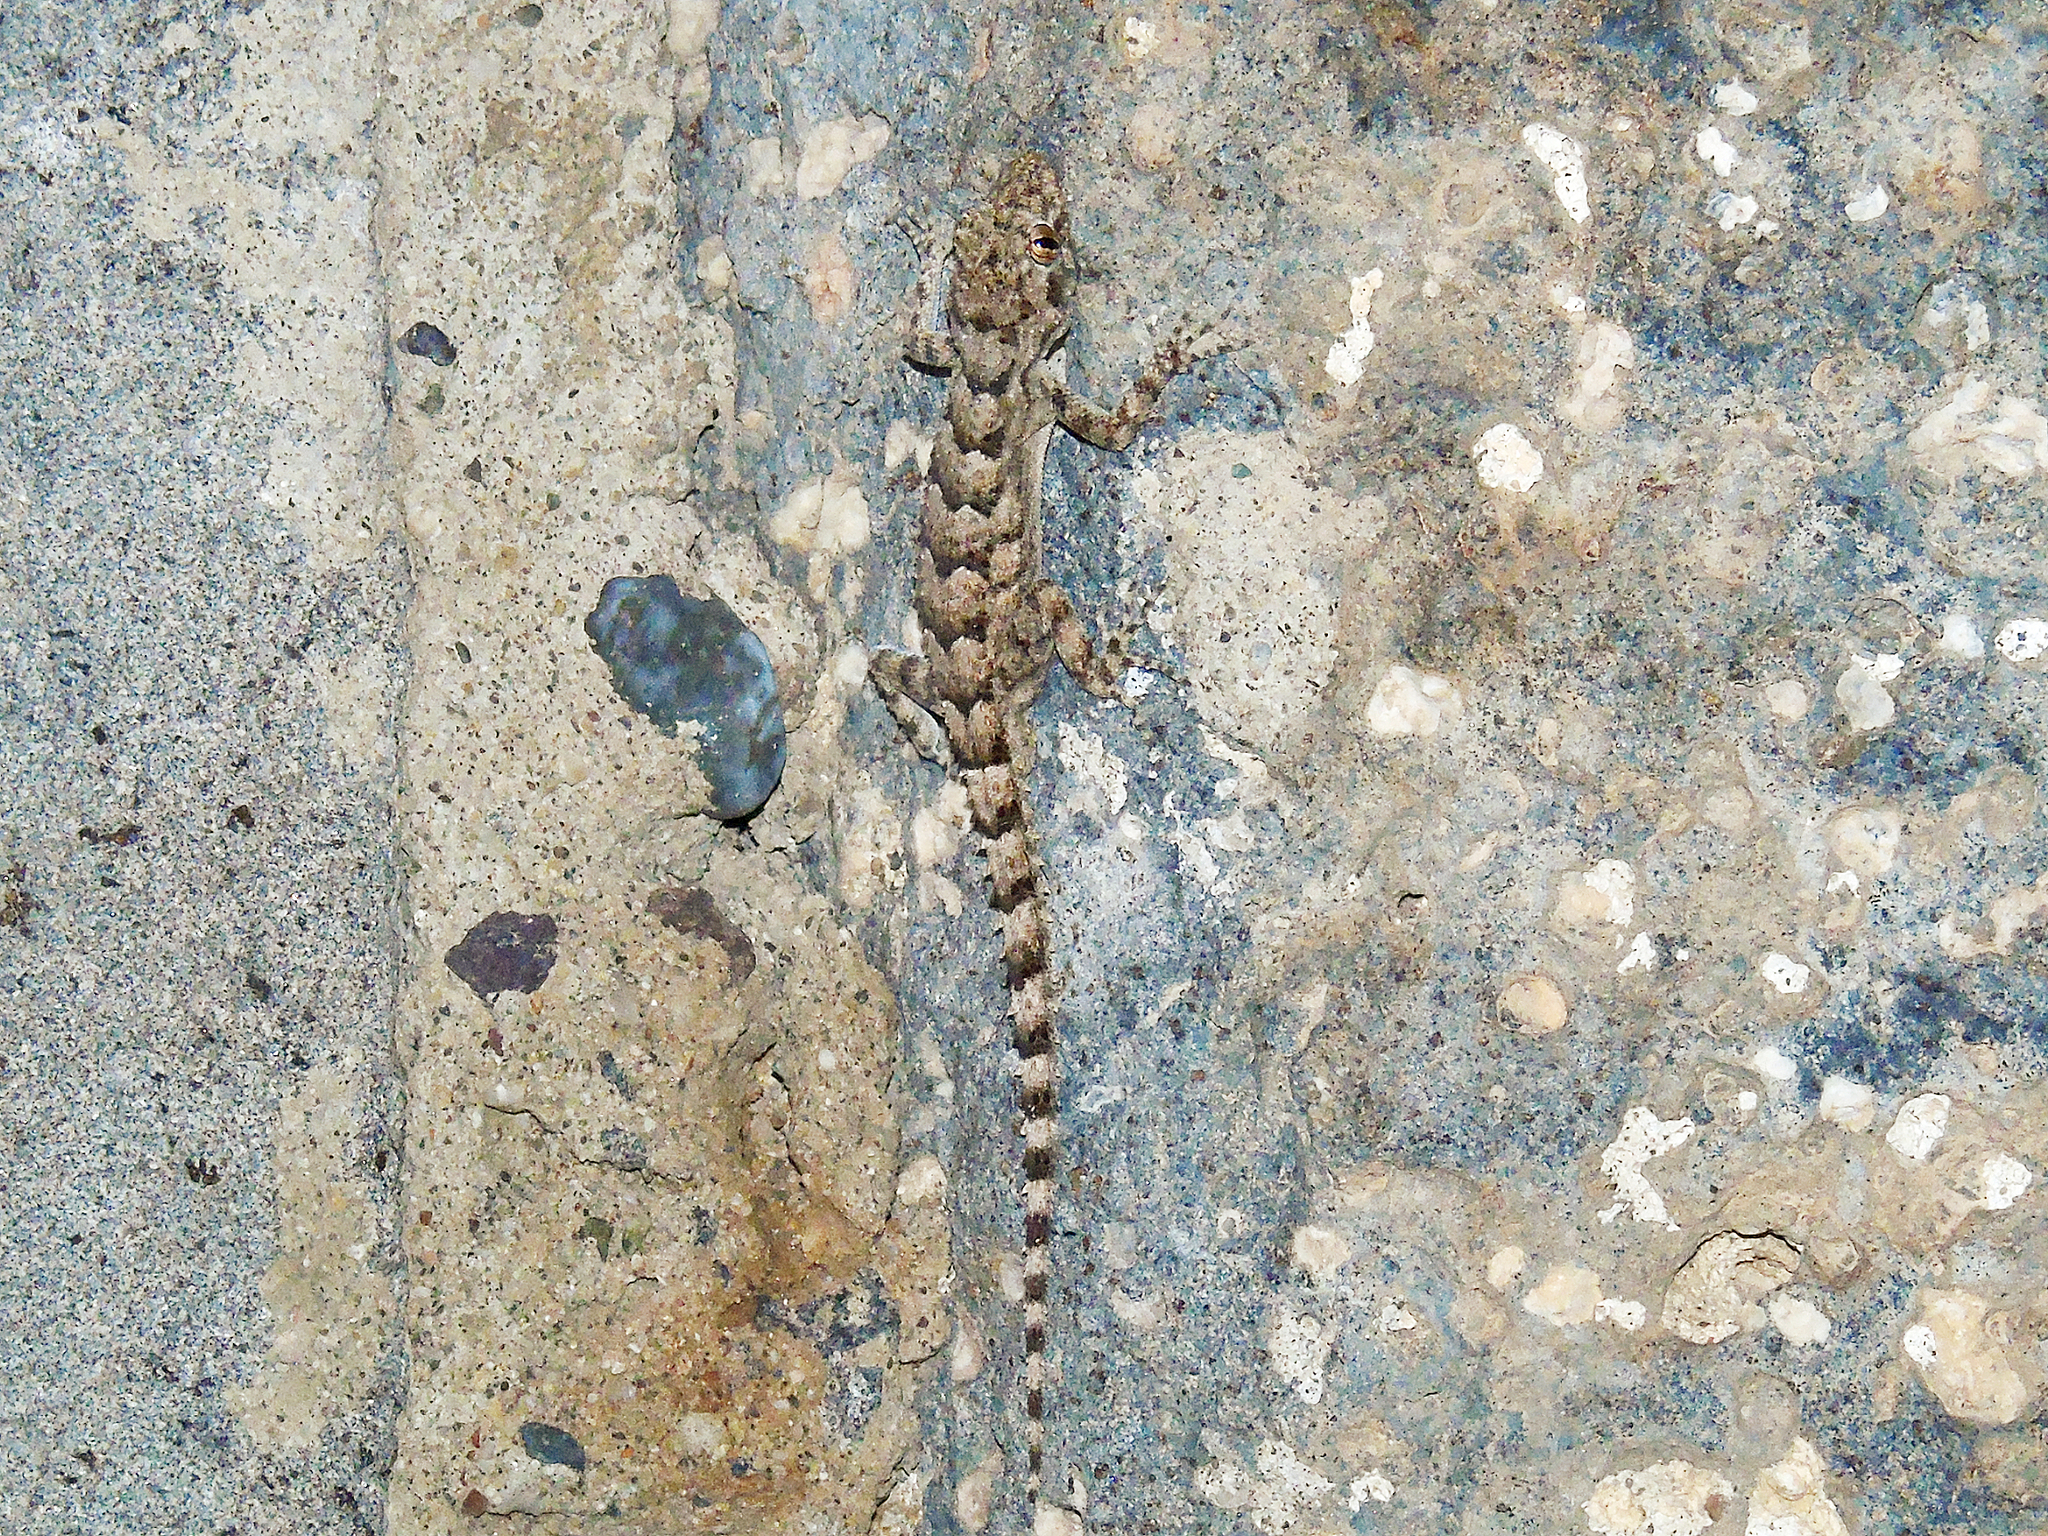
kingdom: Animalia
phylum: Chordata
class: Squamata
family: Gekkonidae
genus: Mediodactylus
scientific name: Mediodactylus heterocercus
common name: Asia minor thin-toed gecko
